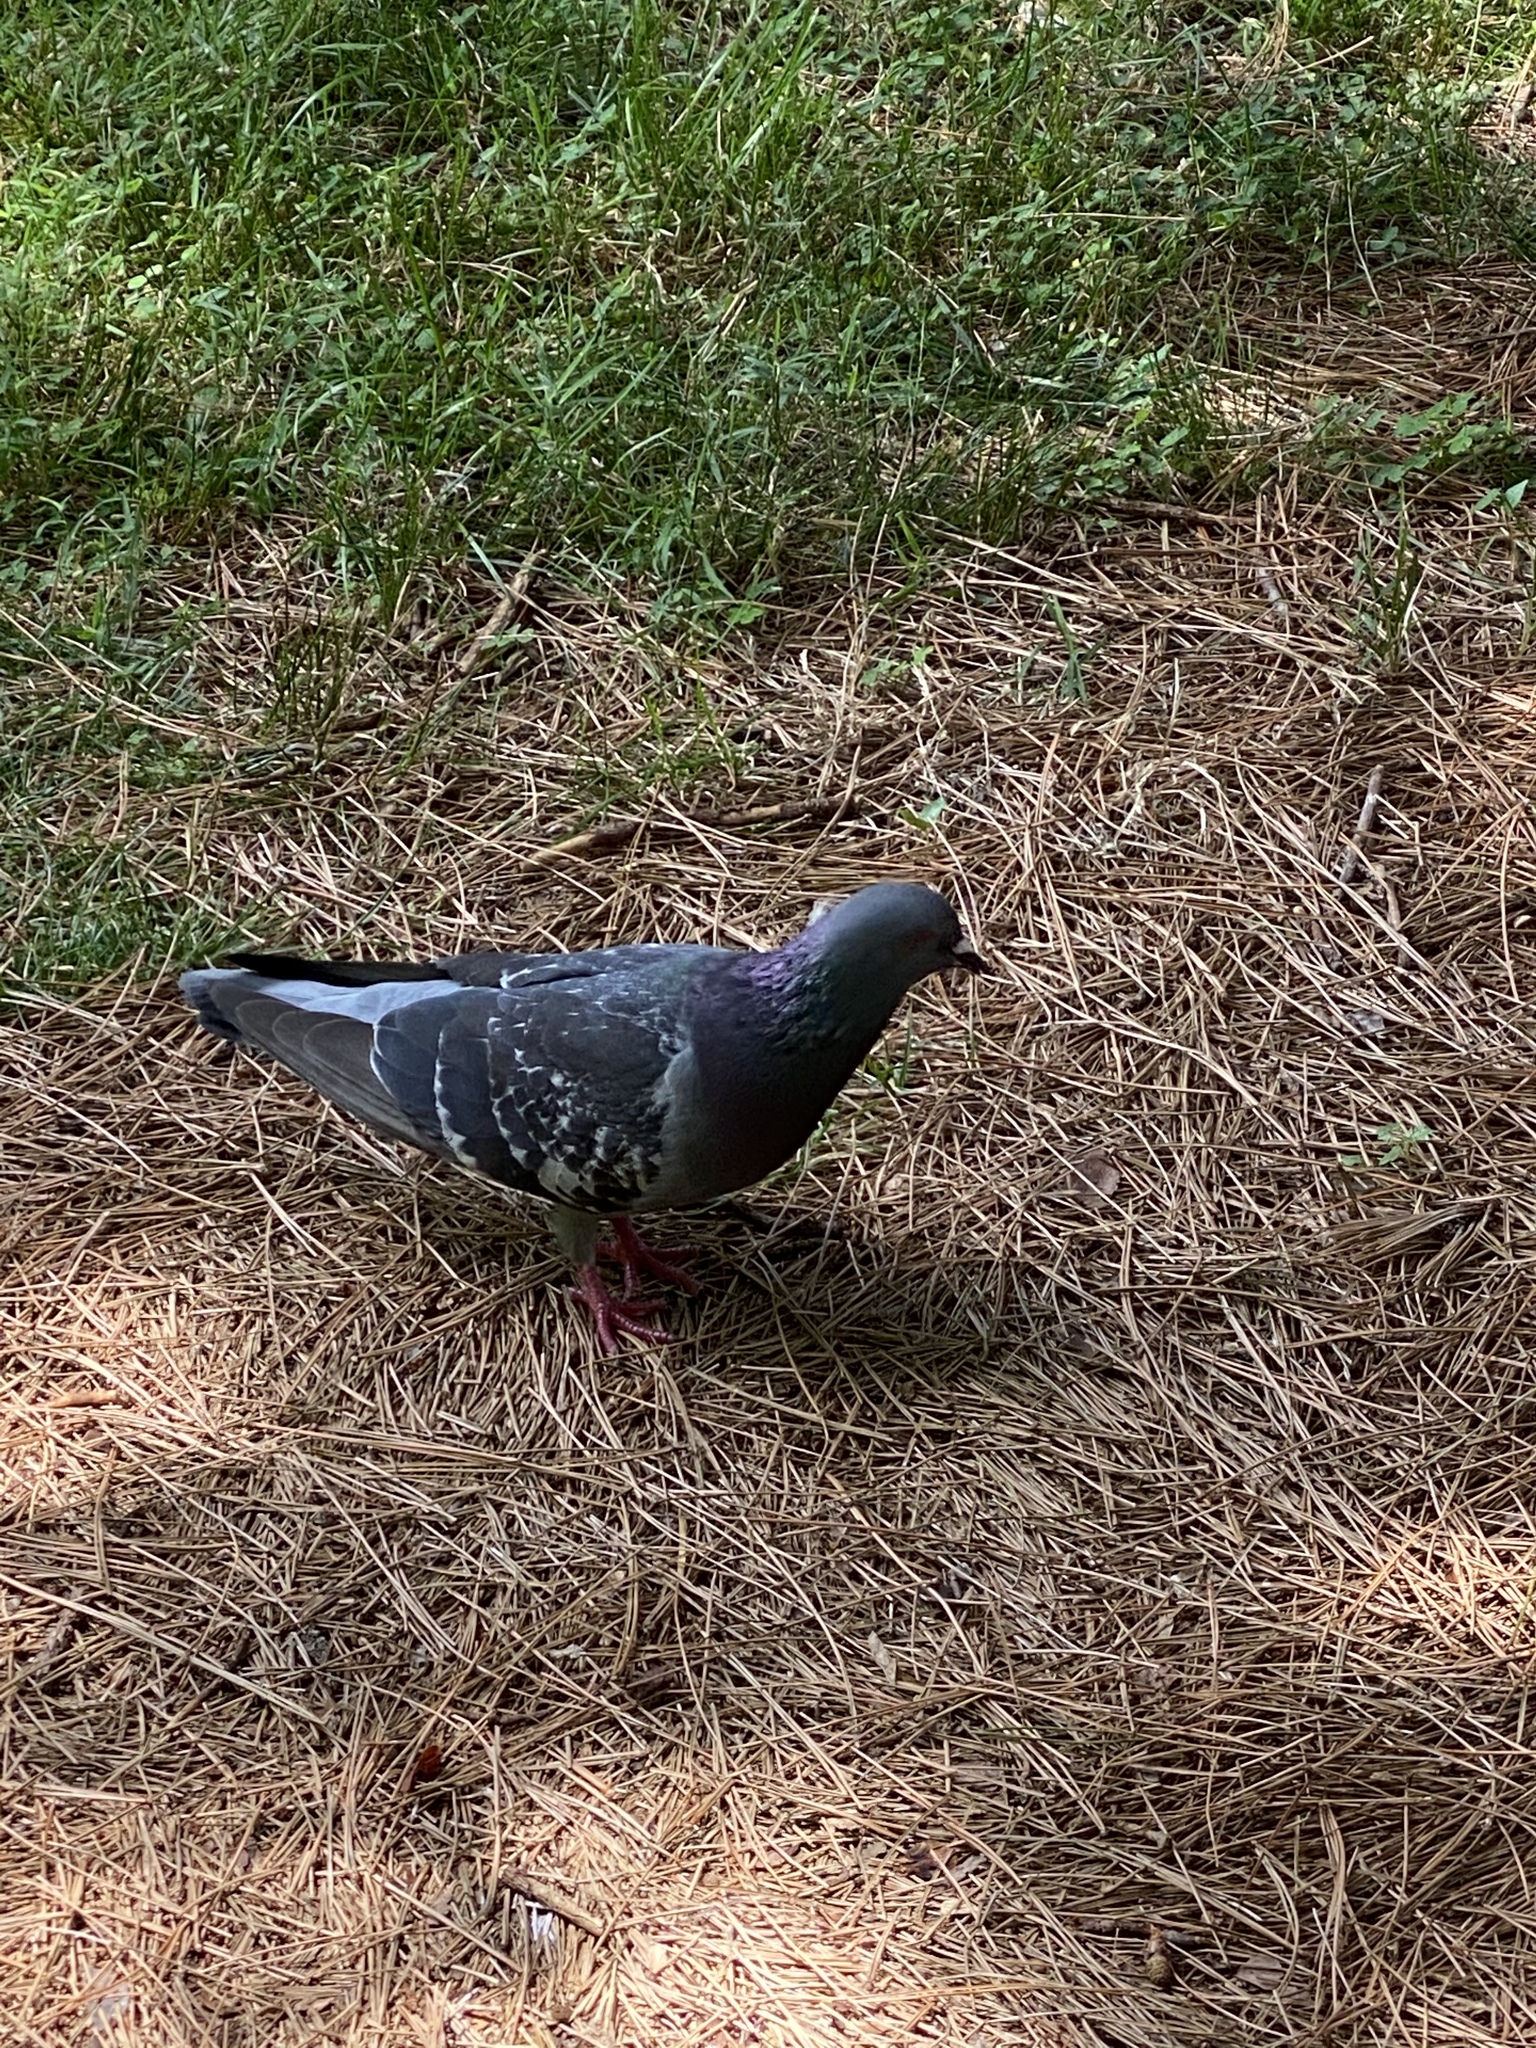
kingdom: Animalia
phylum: Chordata
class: Aves
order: Columbiformes
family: Columbidae
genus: Columba
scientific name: Columba livia
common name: Rock pigeon
